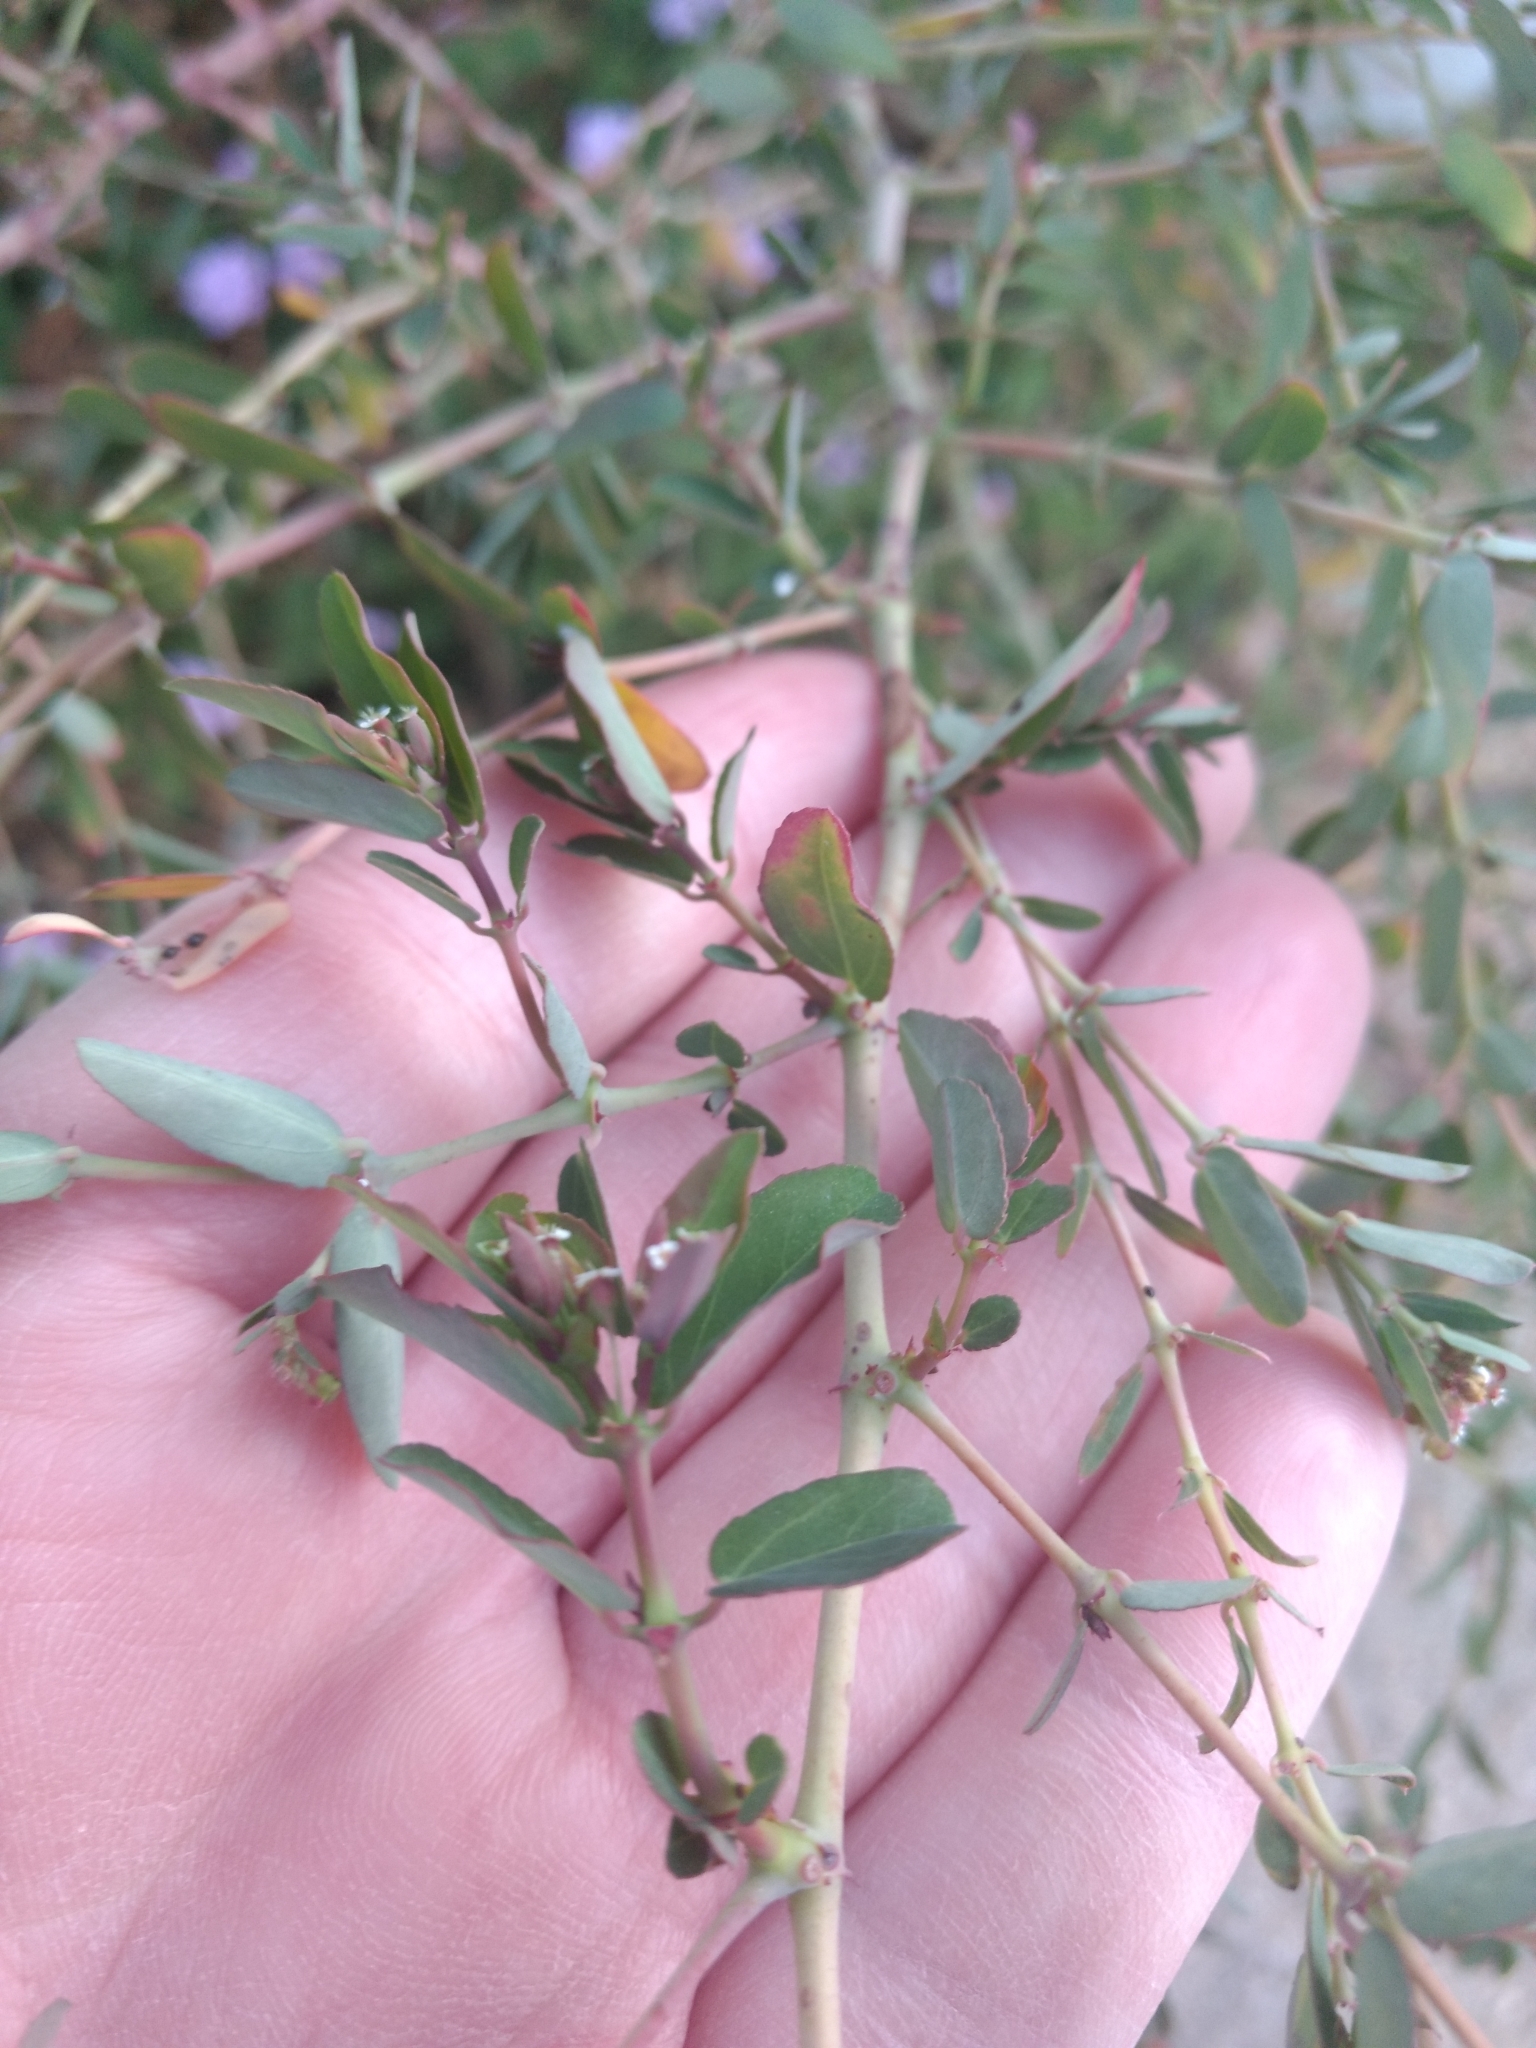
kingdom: Plantae
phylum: Tracheophyta
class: Magnoliopsida
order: Malpighiales
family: Euphorbiaceae
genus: Euphorbia
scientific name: Euphorbia hypericifolia
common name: Graceful sandmat
